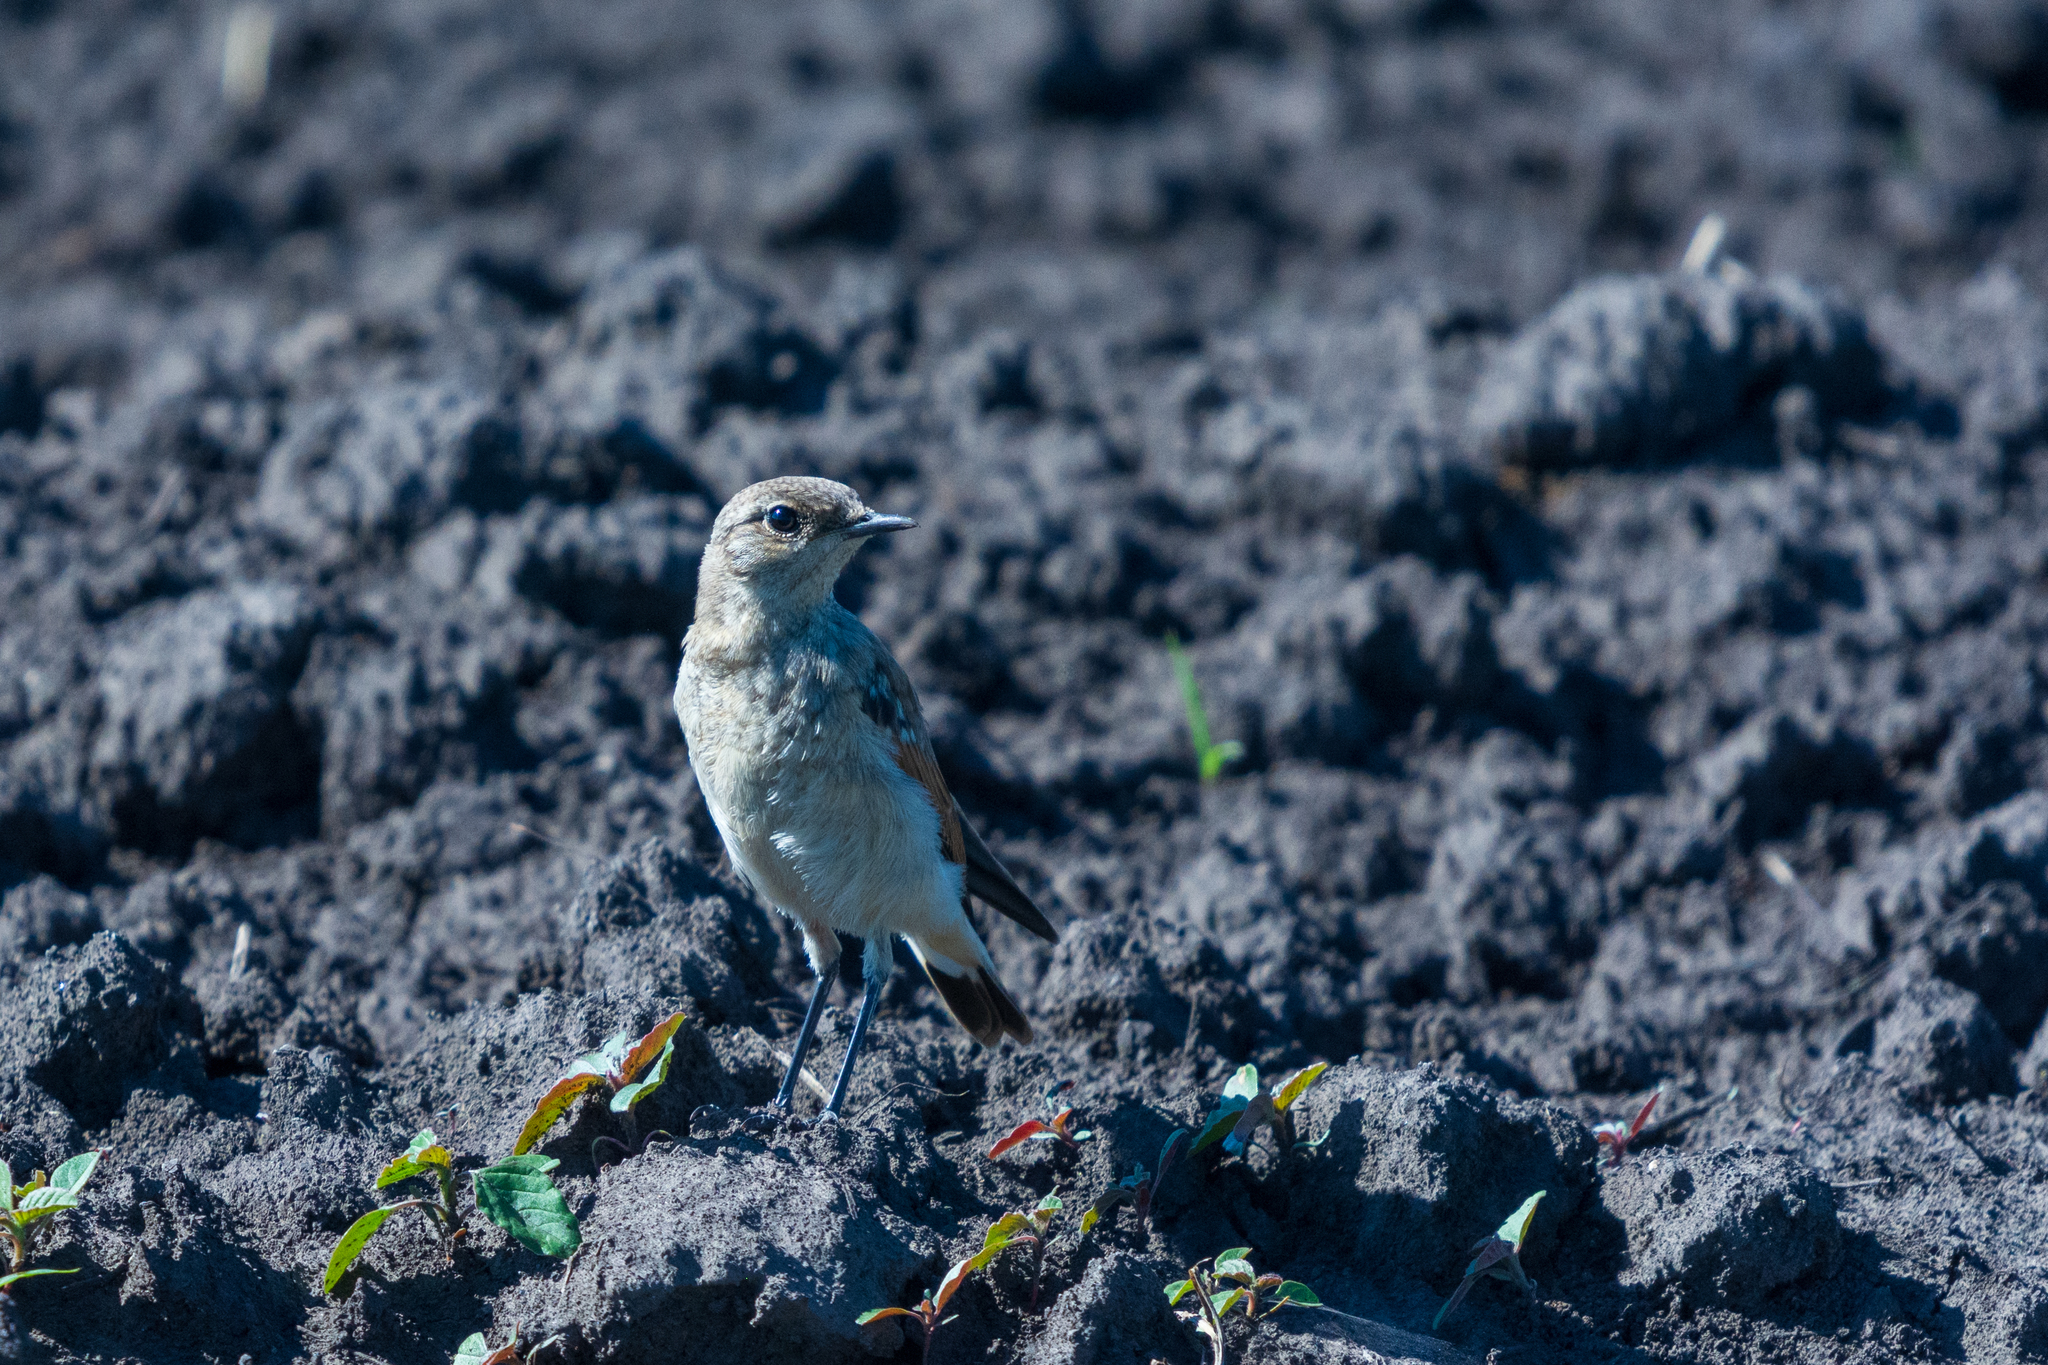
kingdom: Animalia
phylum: Chordata
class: Aves
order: Passeriformes
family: Muscicapidae
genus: Oenanthe
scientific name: Oenanthe oenanthe
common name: Northern wheatear
